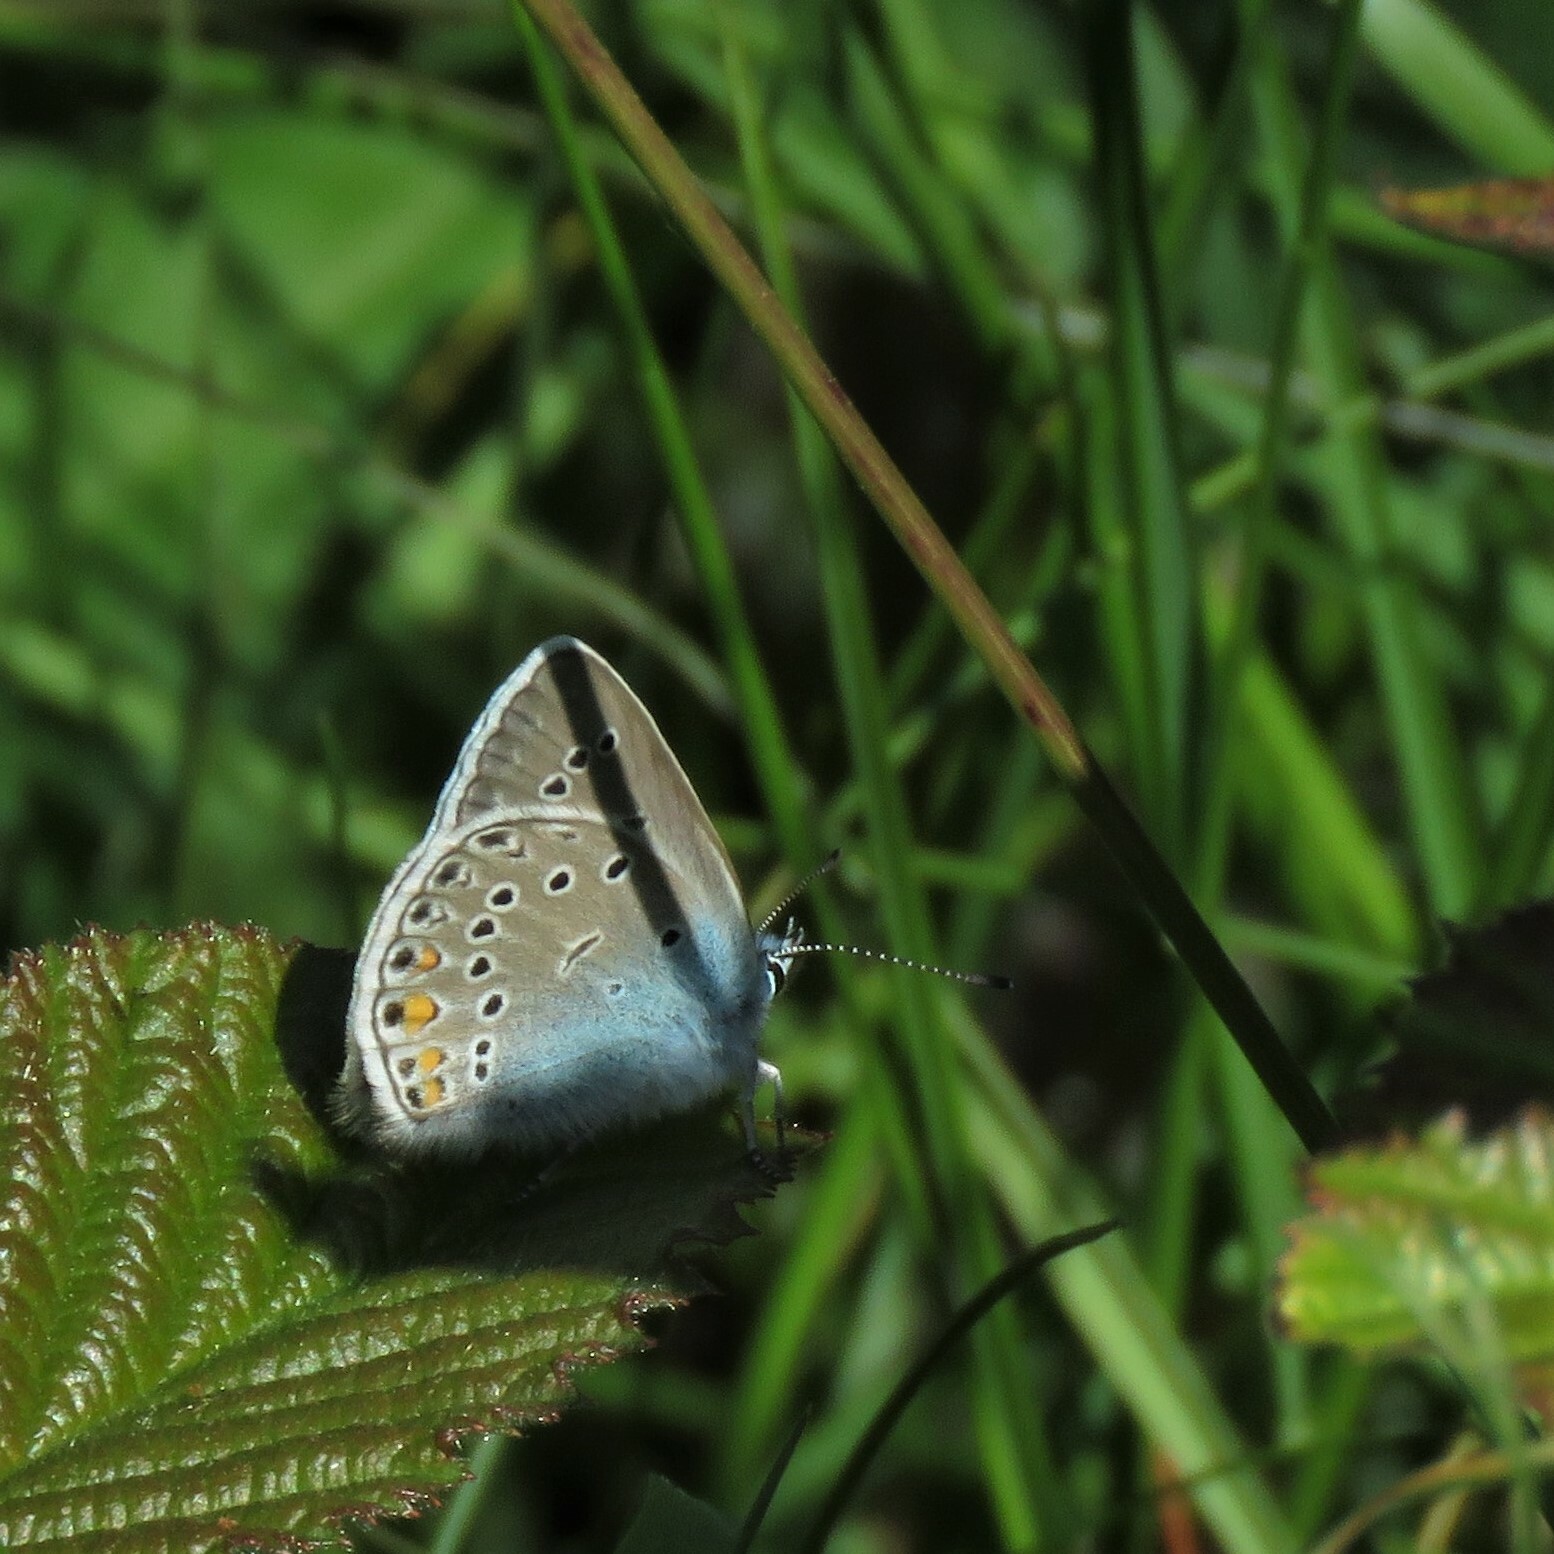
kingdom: Animalia
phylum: Arthropoda
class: Insecta
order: Lepidoptera
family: Lycaenidae
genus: Plebejus
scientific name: Plebejus amanda
